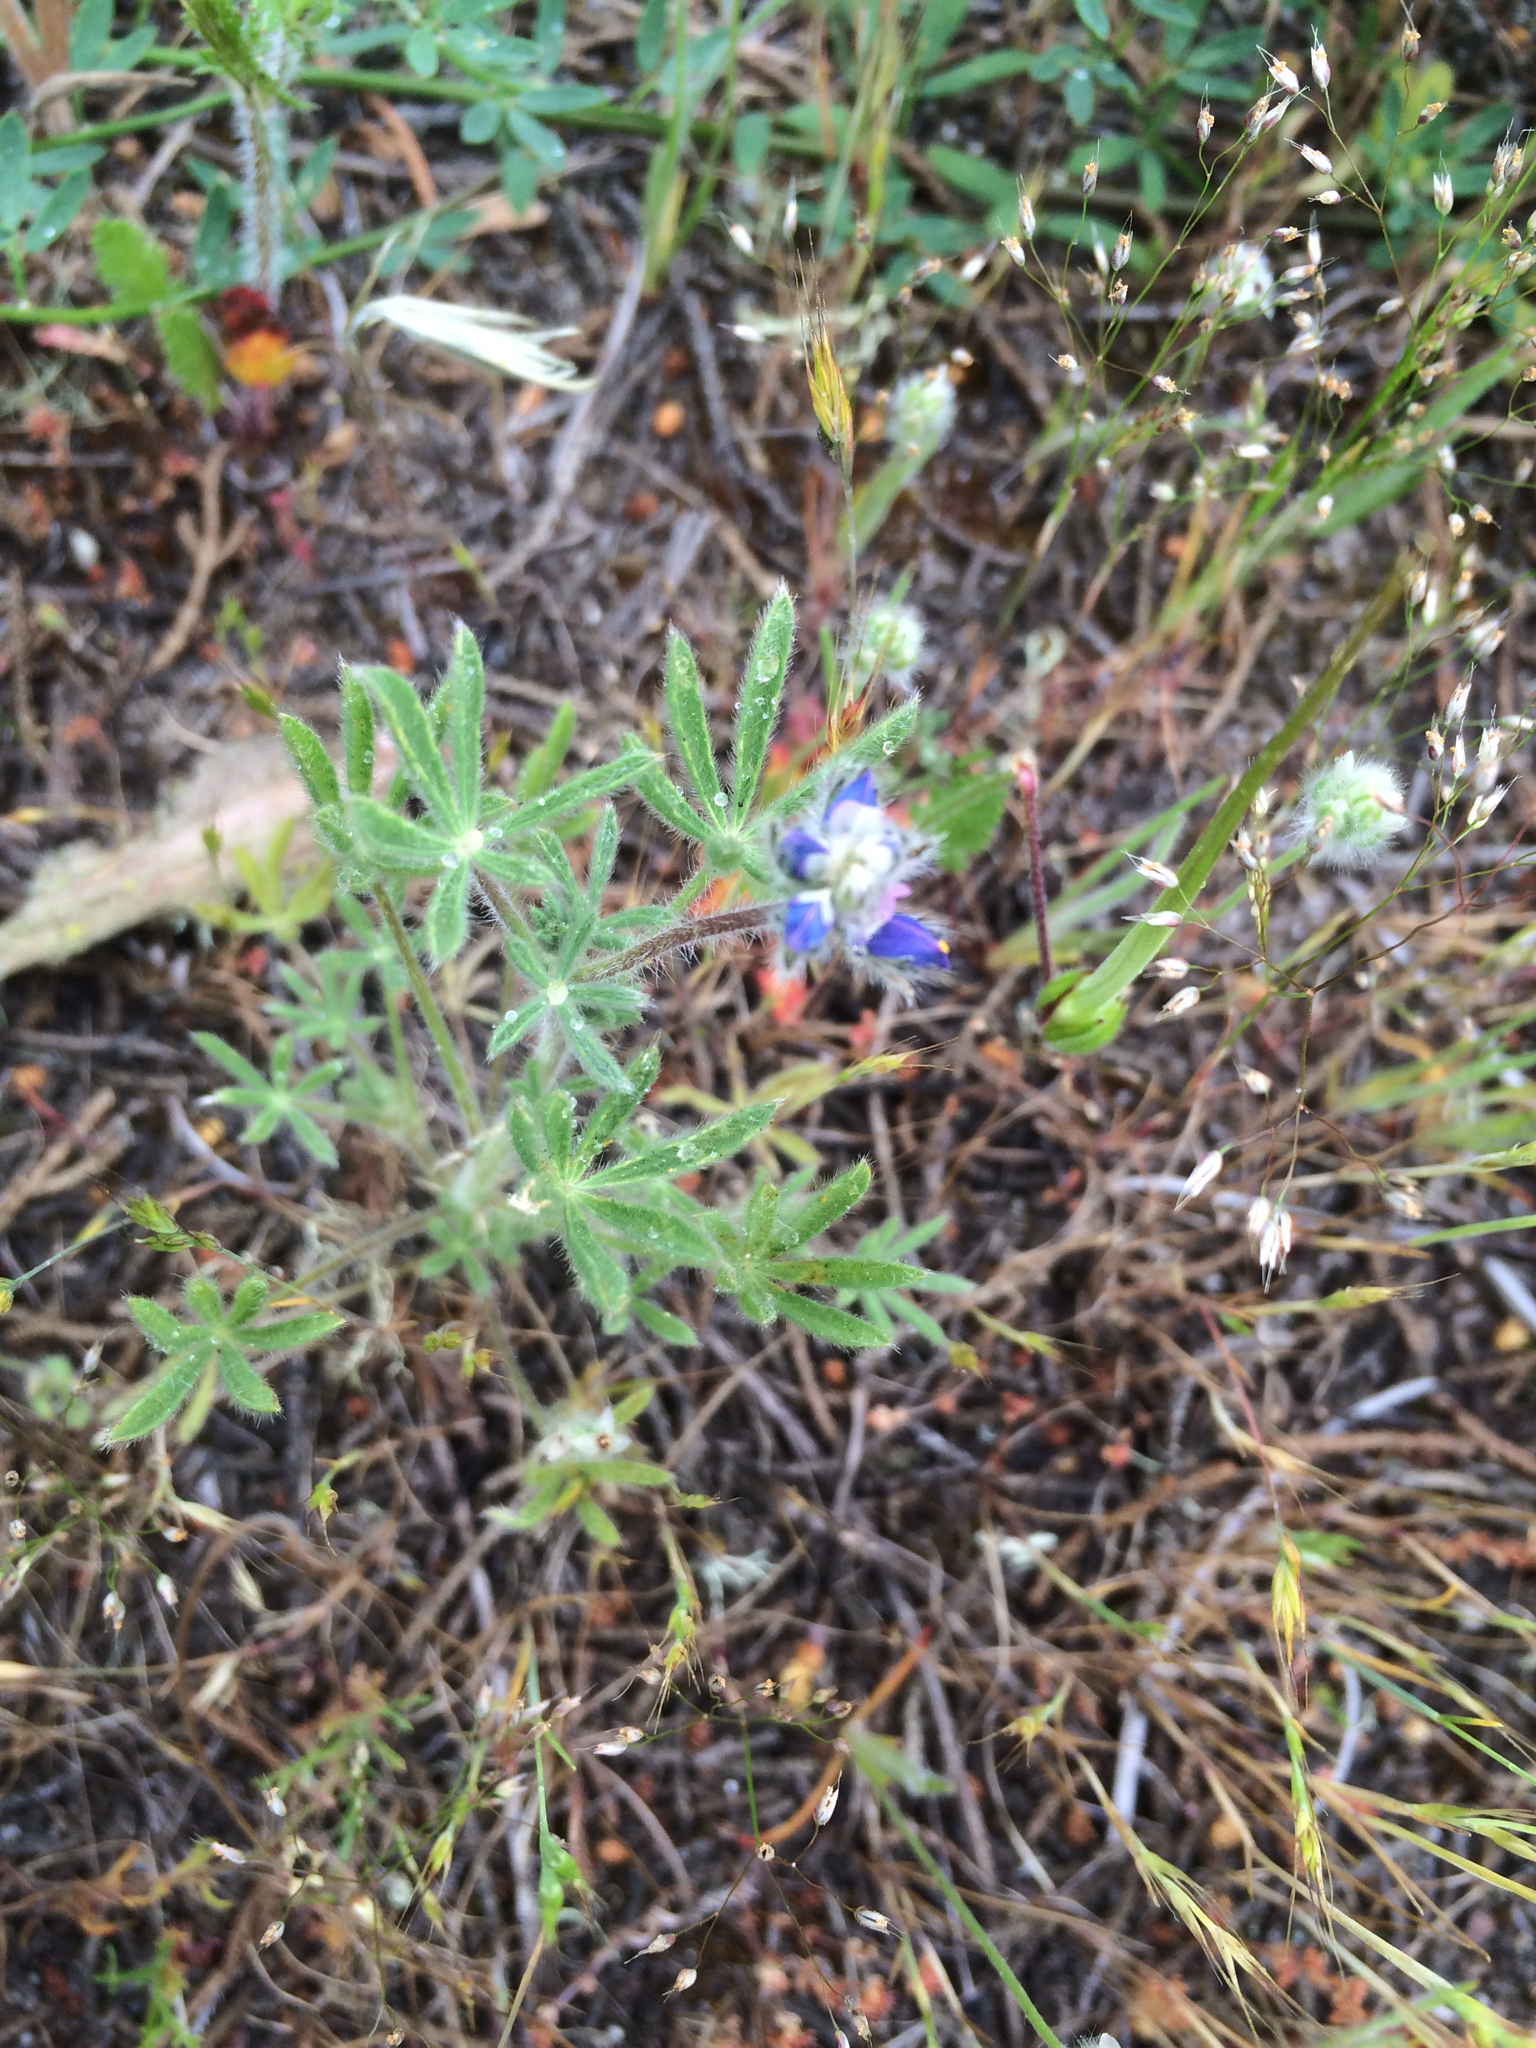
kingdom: Plantae
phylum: Tracheophyta
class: Magnoliopsida
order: Fabales
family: Fabaceae
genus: Lupinus
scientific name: Lupinus bicolor
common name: Miniature lupine
